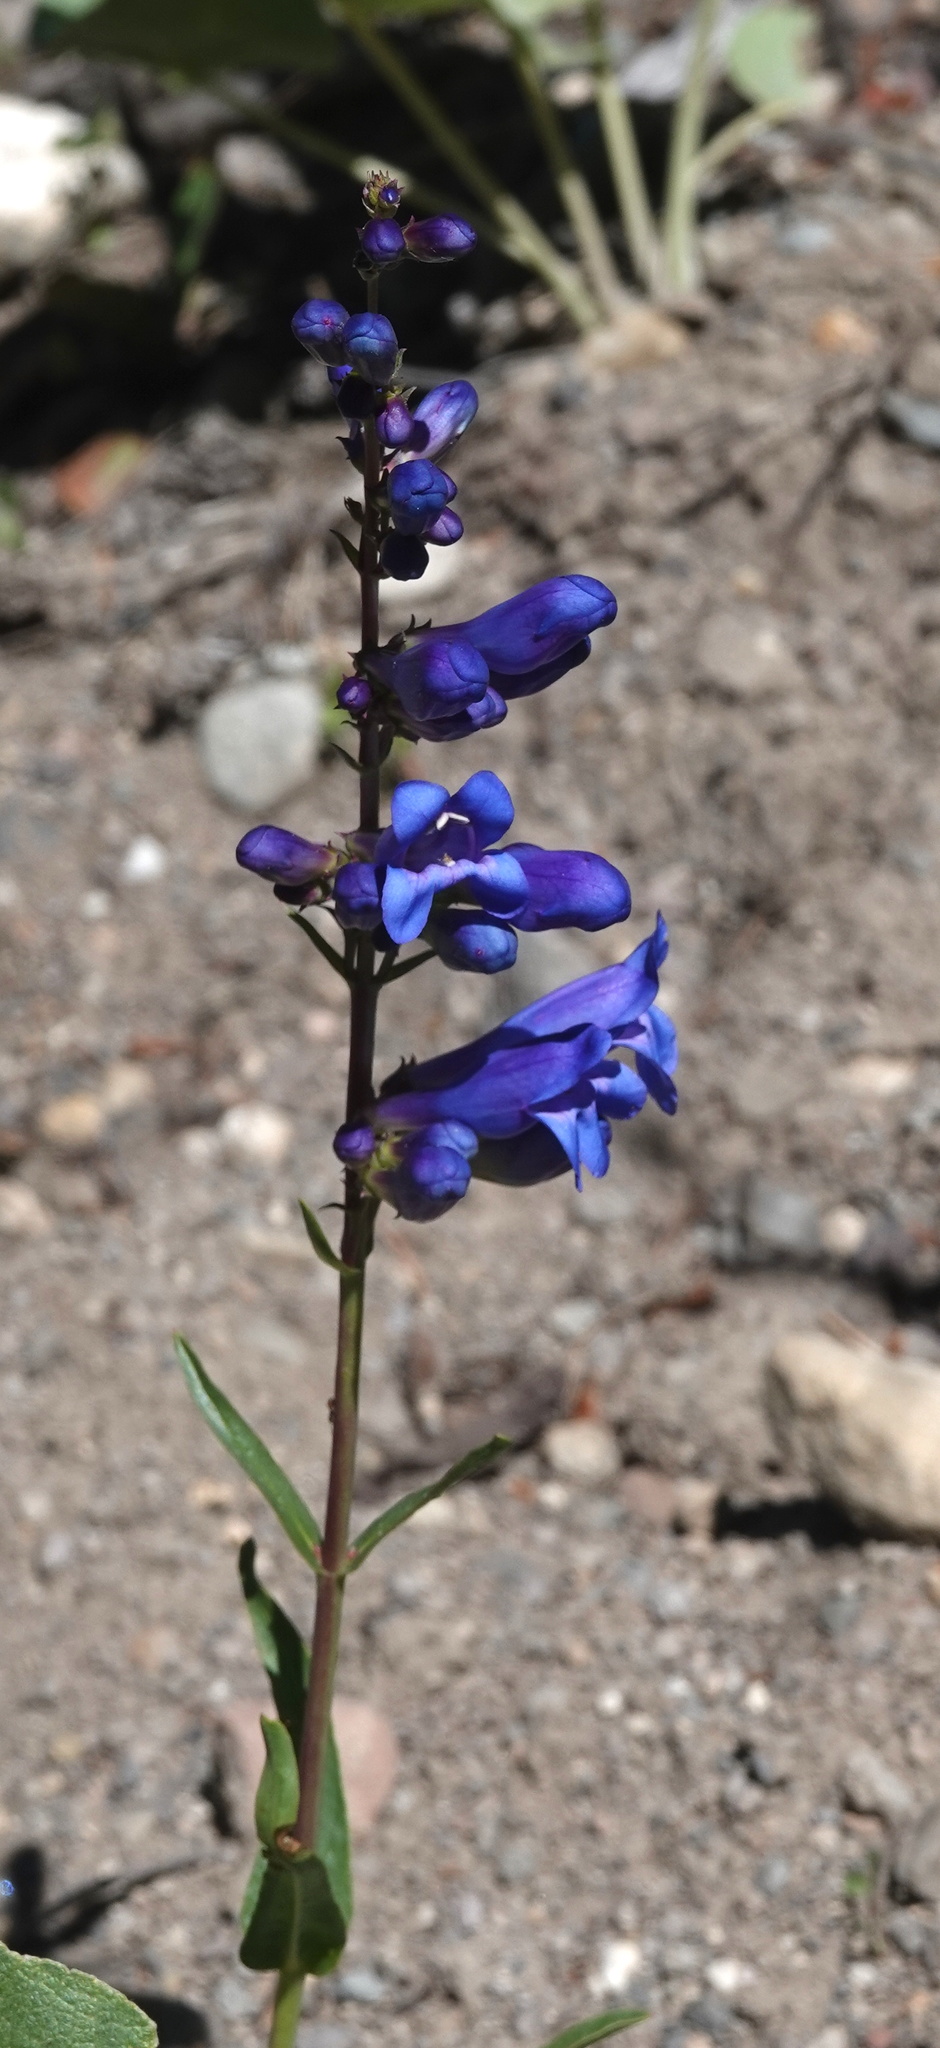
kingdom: Plantae
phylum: Tracheophyta
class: Magnoliopsida
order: Lamiales
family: Plantaginaceae
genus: Penstemon
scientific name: Penstemon cyaneus
